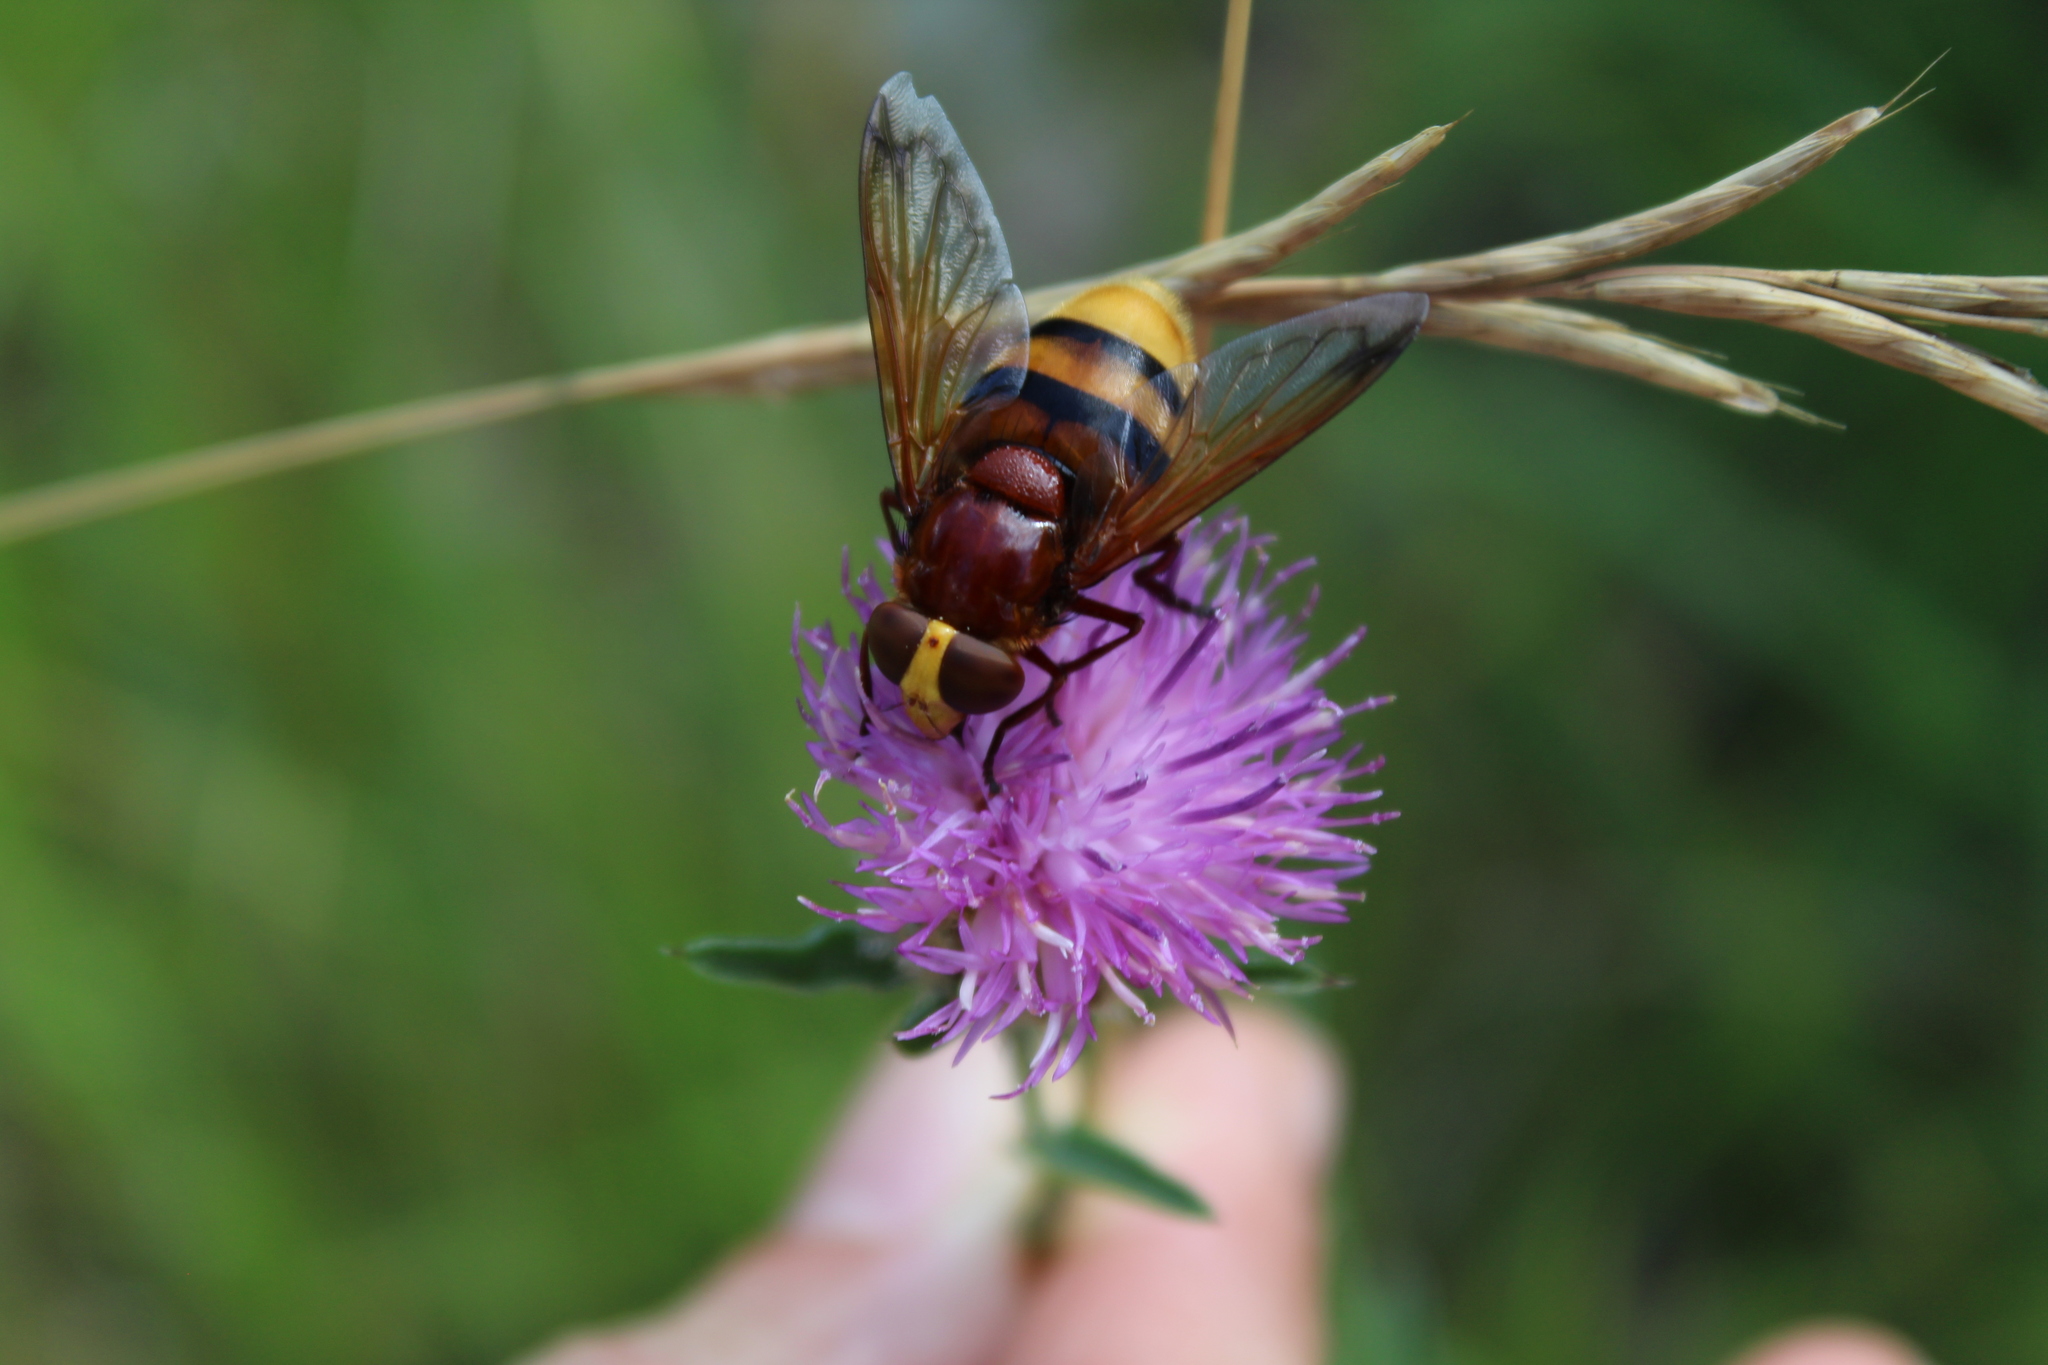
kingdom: Animalia
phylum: Arthropoda
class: Insecta
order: Diptera
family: Syrphidae
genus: Volucella
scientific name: Volucella zonaria
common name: Hornet hoverfly
